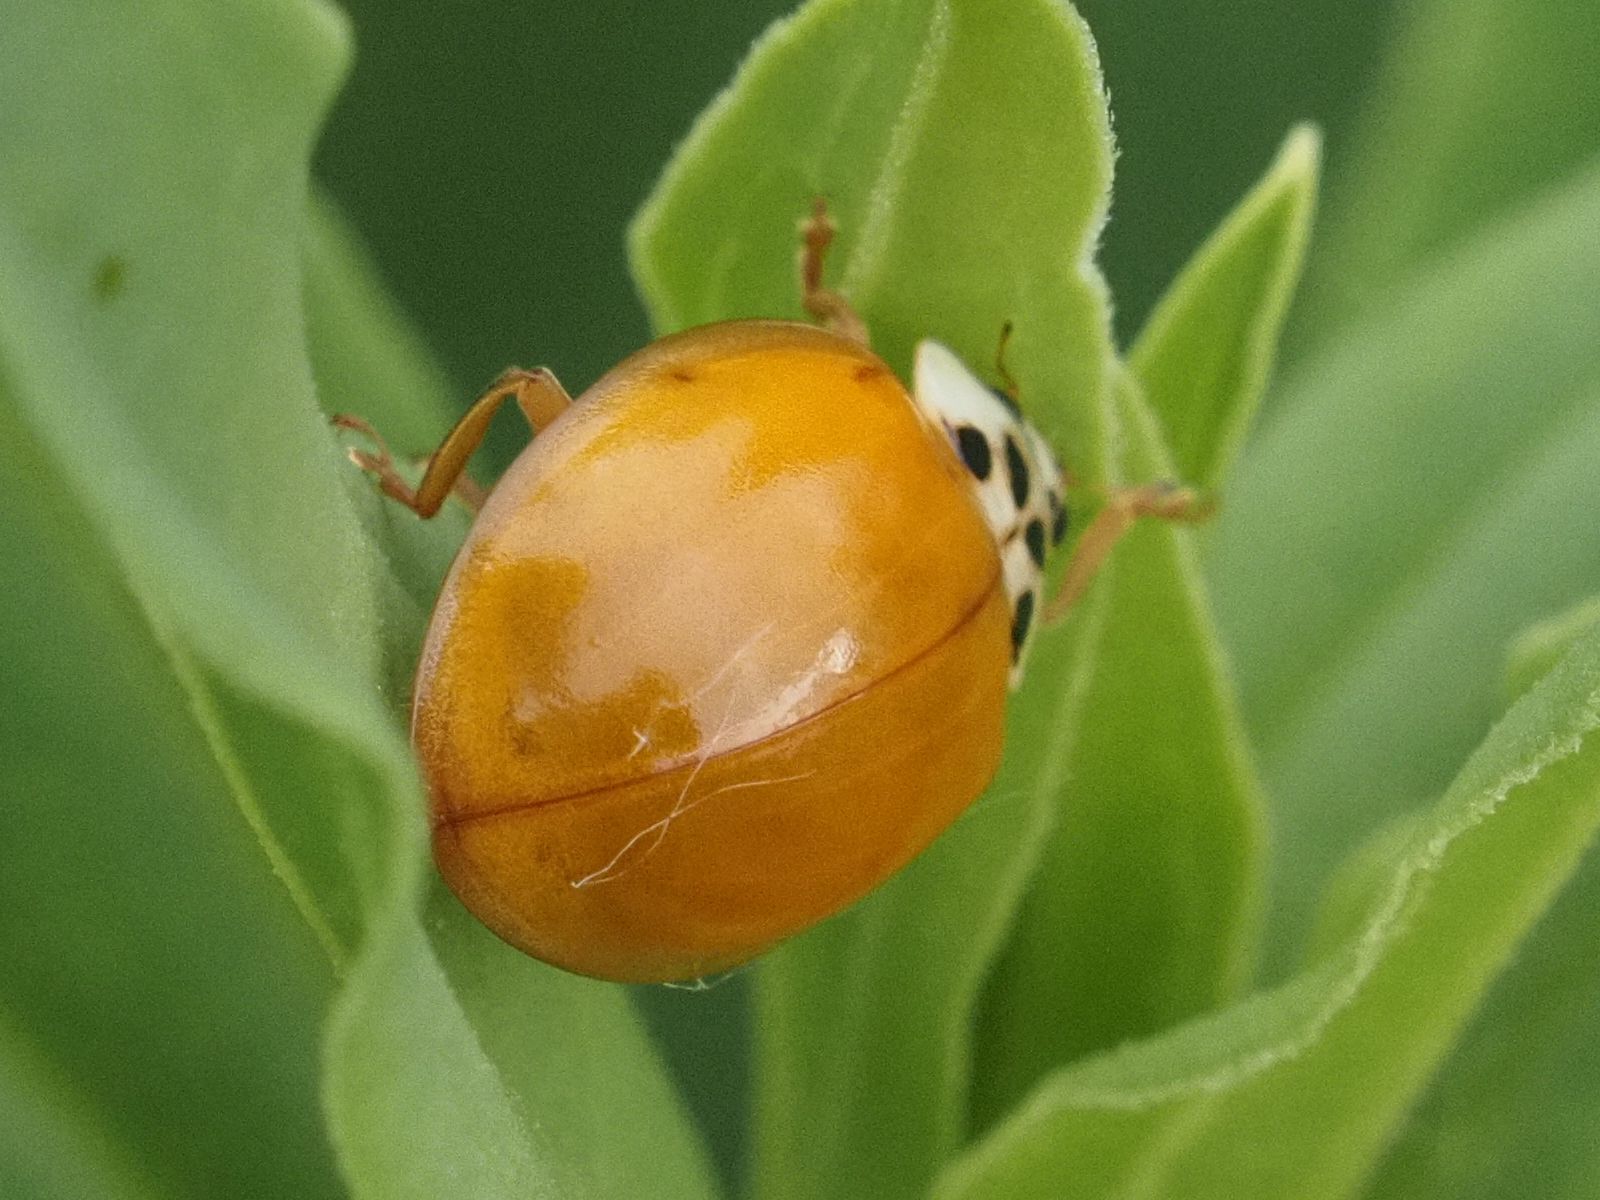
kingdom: Animalia
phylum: Arthropoda
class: Insecta
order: Coleoptera
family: Coccinellidae
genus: Harmonia
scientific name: Harmonia axyridis
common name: Harlequin ladybird
